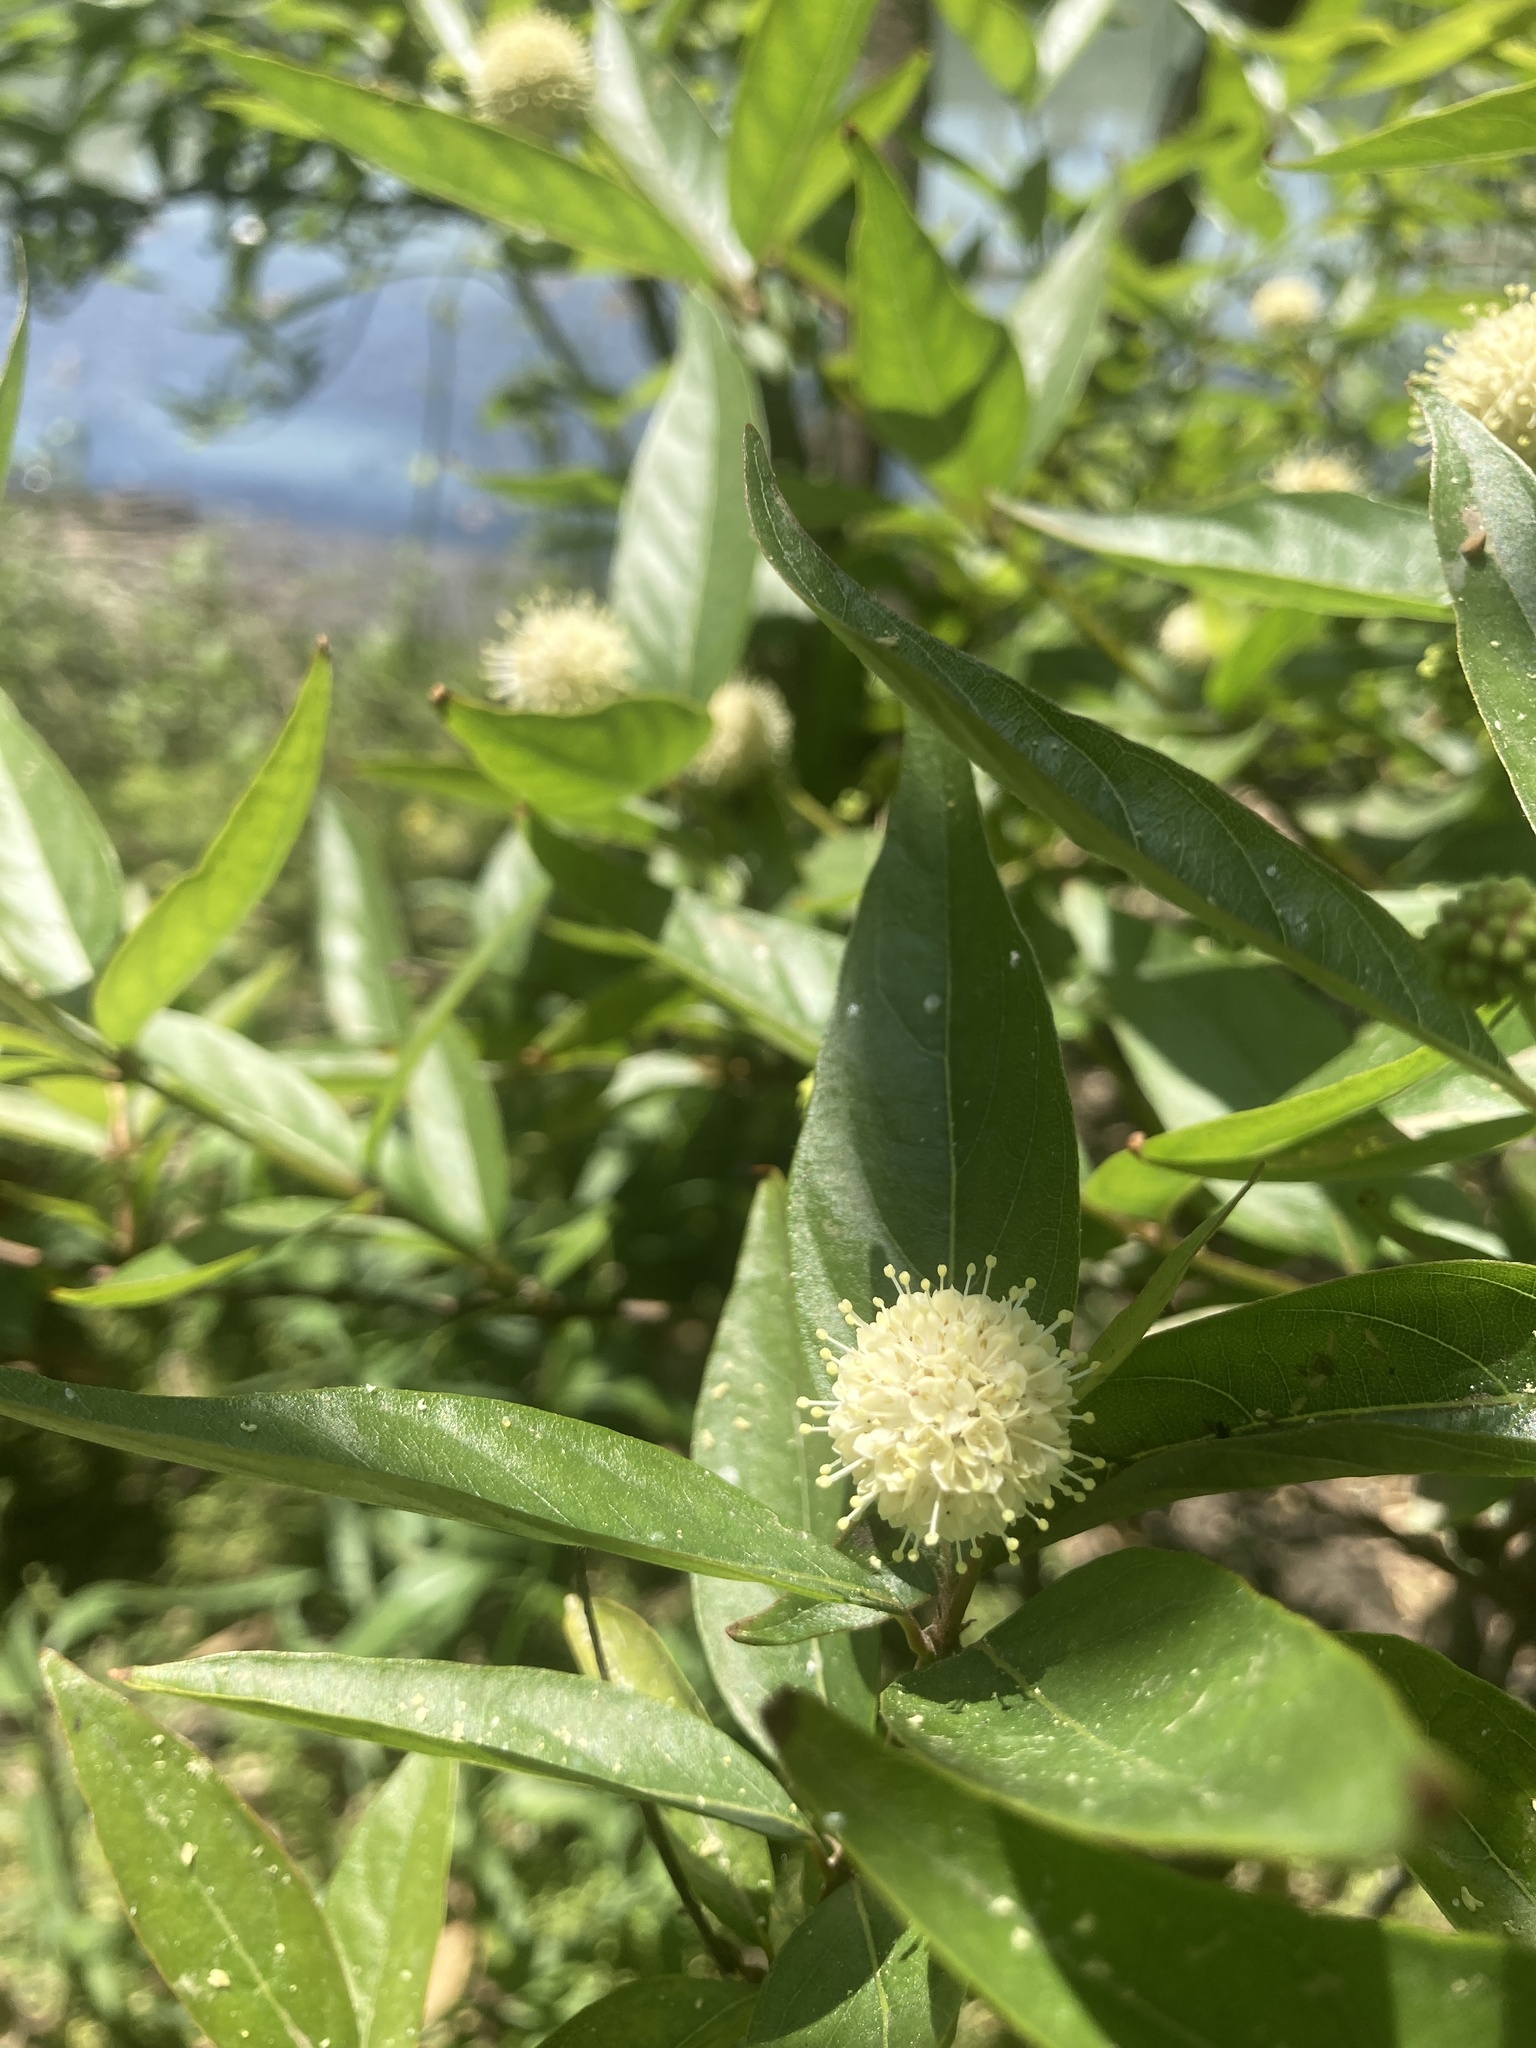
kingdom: Plantae
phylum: Tracheophyta
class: Magnoliopsida
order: Gentianales
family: Rubiaceae
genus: Cephalanthus
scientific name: Cephalanthus glabratus
